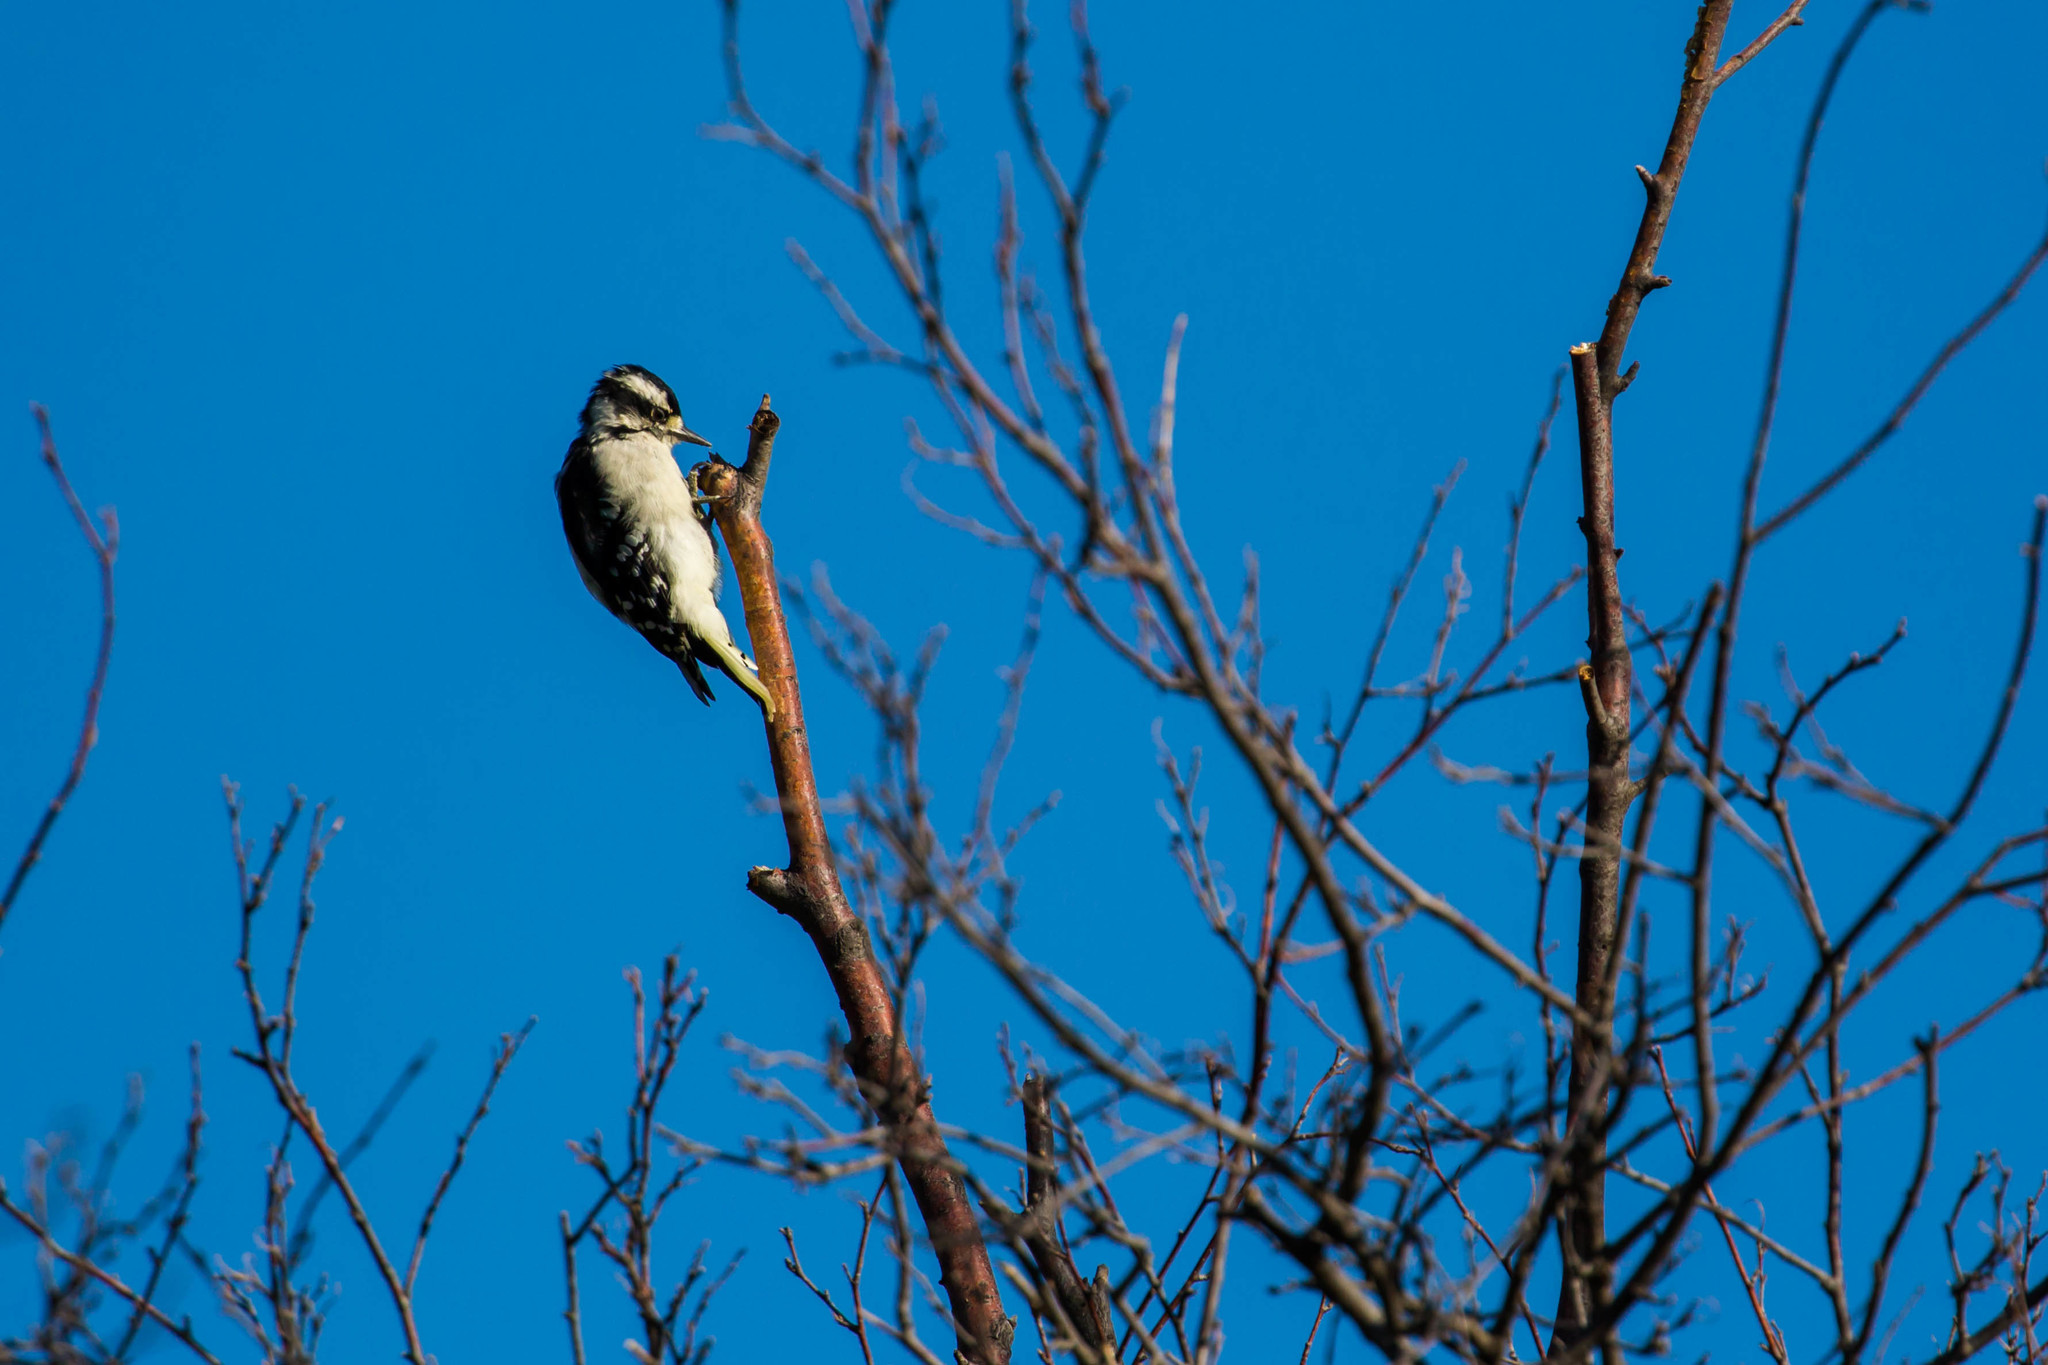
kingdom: Animalia
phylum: Chordata
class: Aves
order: Piciformes
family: Picidae
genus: Dryobates
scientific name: Dryobates pubescens
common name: Downy woodpecker
